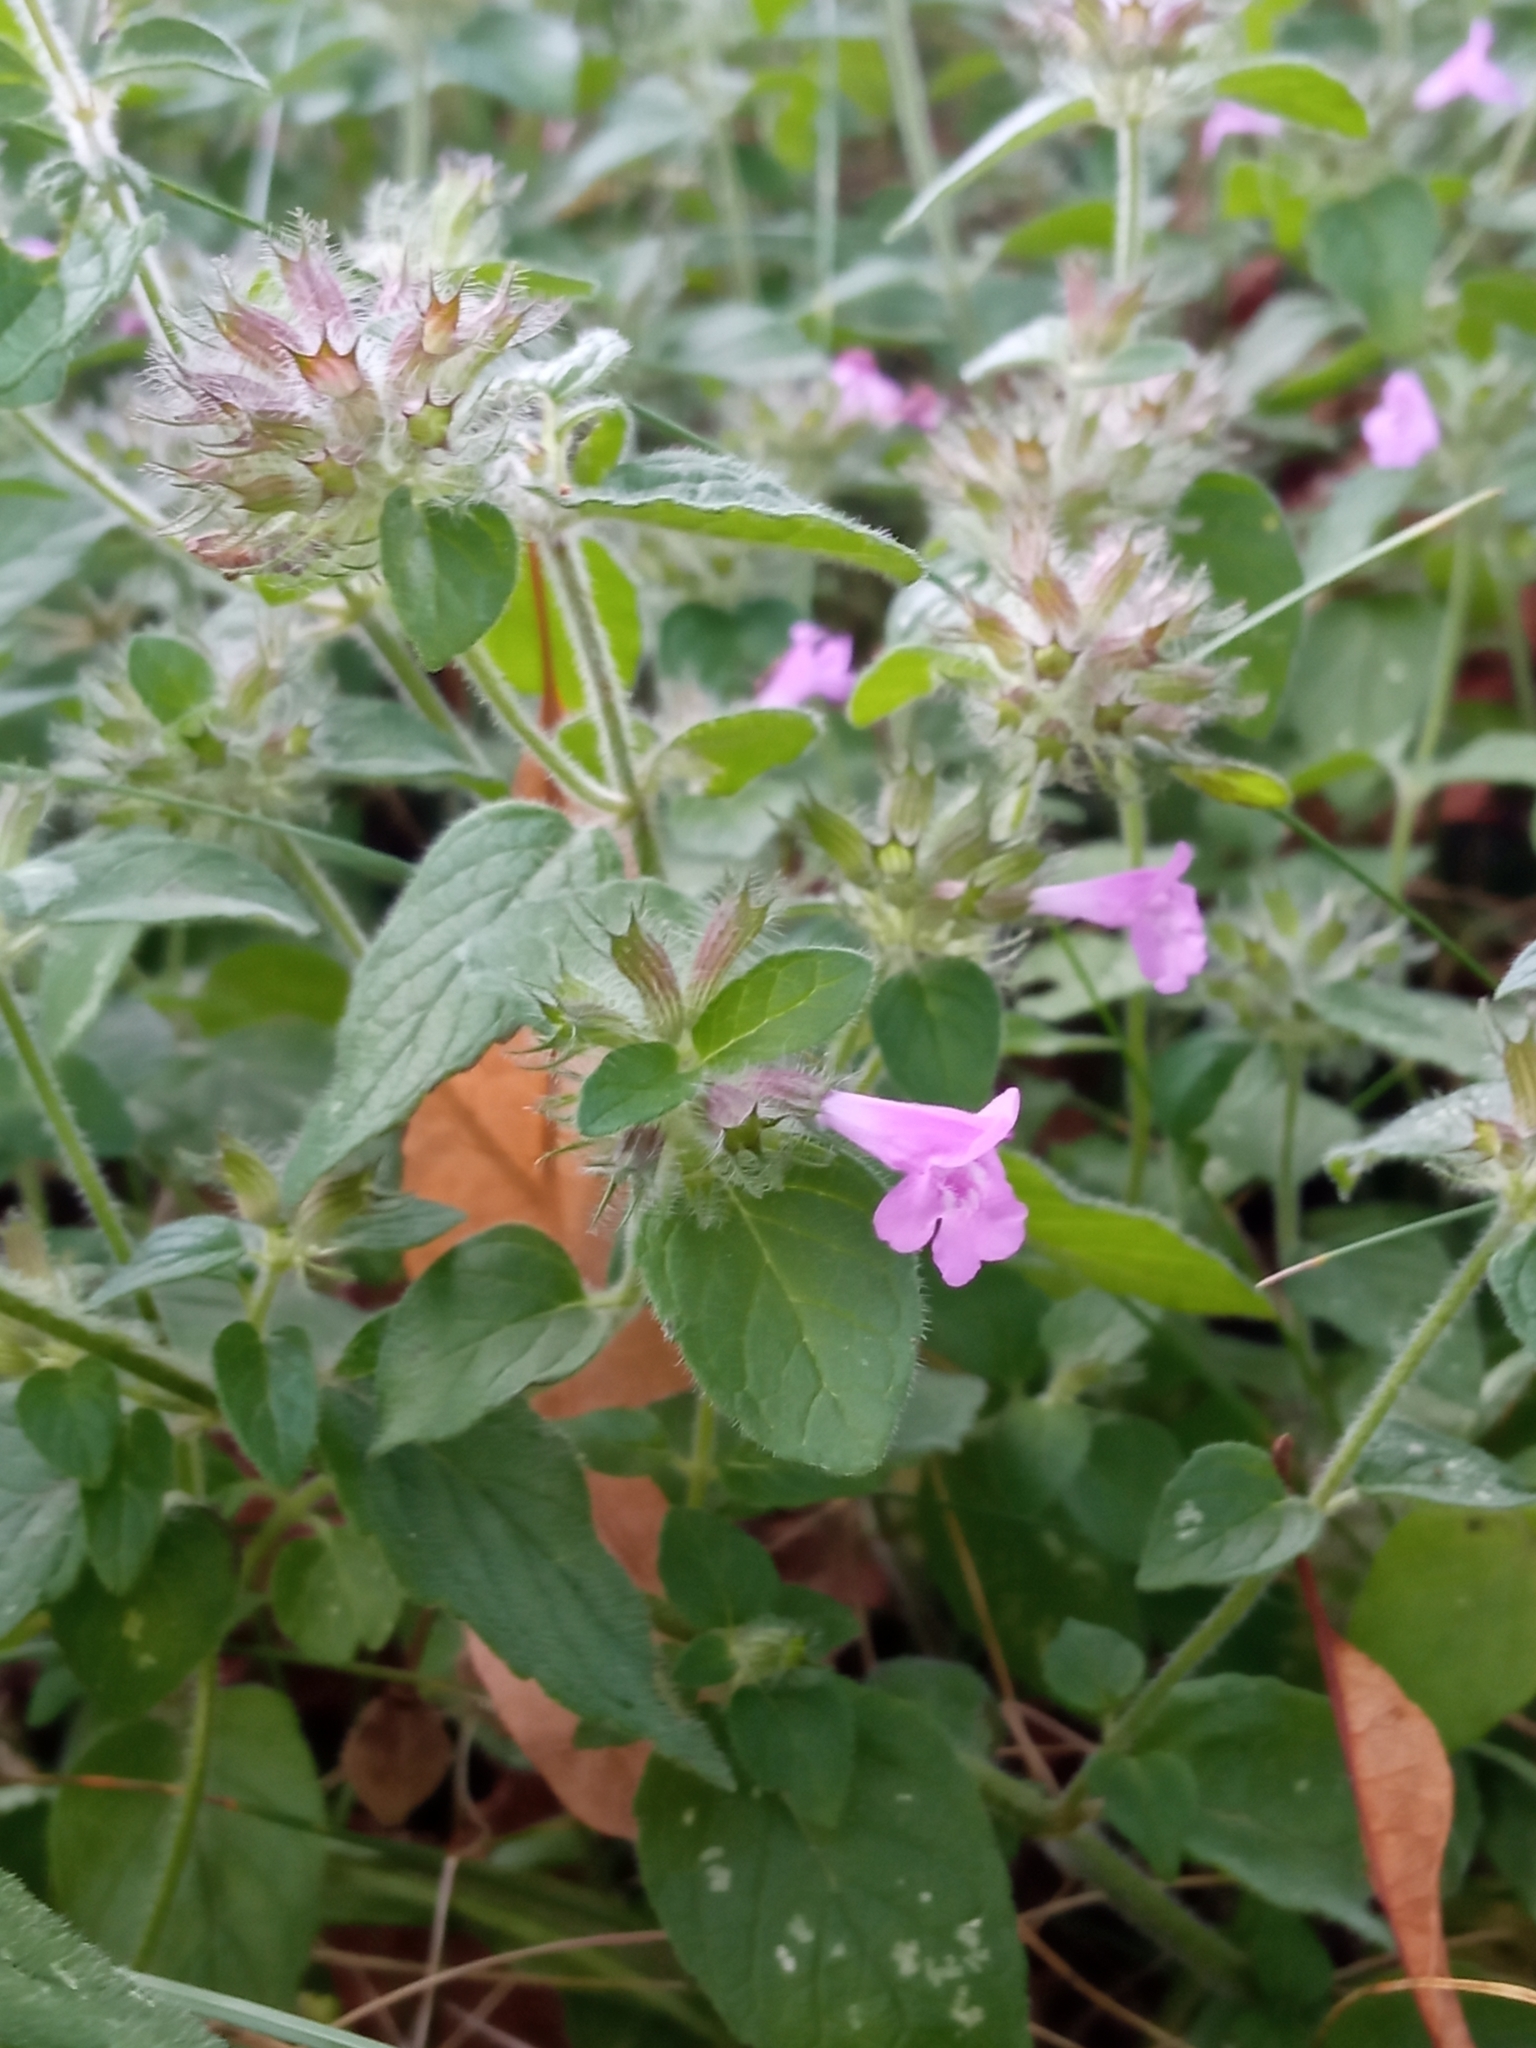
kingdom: Plantae
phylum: Tracheophyta
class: Magnoliopsida
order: Lamiales
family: Lamiaceae
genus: Clinopodium
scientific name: Clinopodium vulgare
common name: Wild basil
